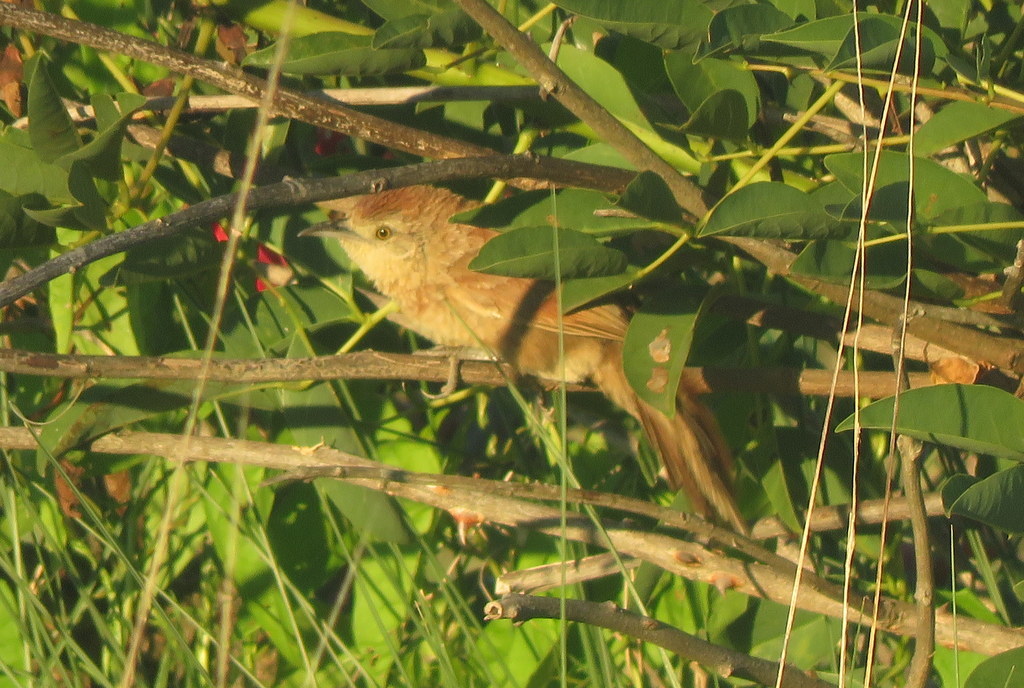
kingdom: Animalia
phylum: Chordata
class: Aves
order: Passeriformes
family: Furnariidae
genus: Phacellodomus
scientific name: Phacellodomus striaticollis
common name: Freckle-breasted thornbird
